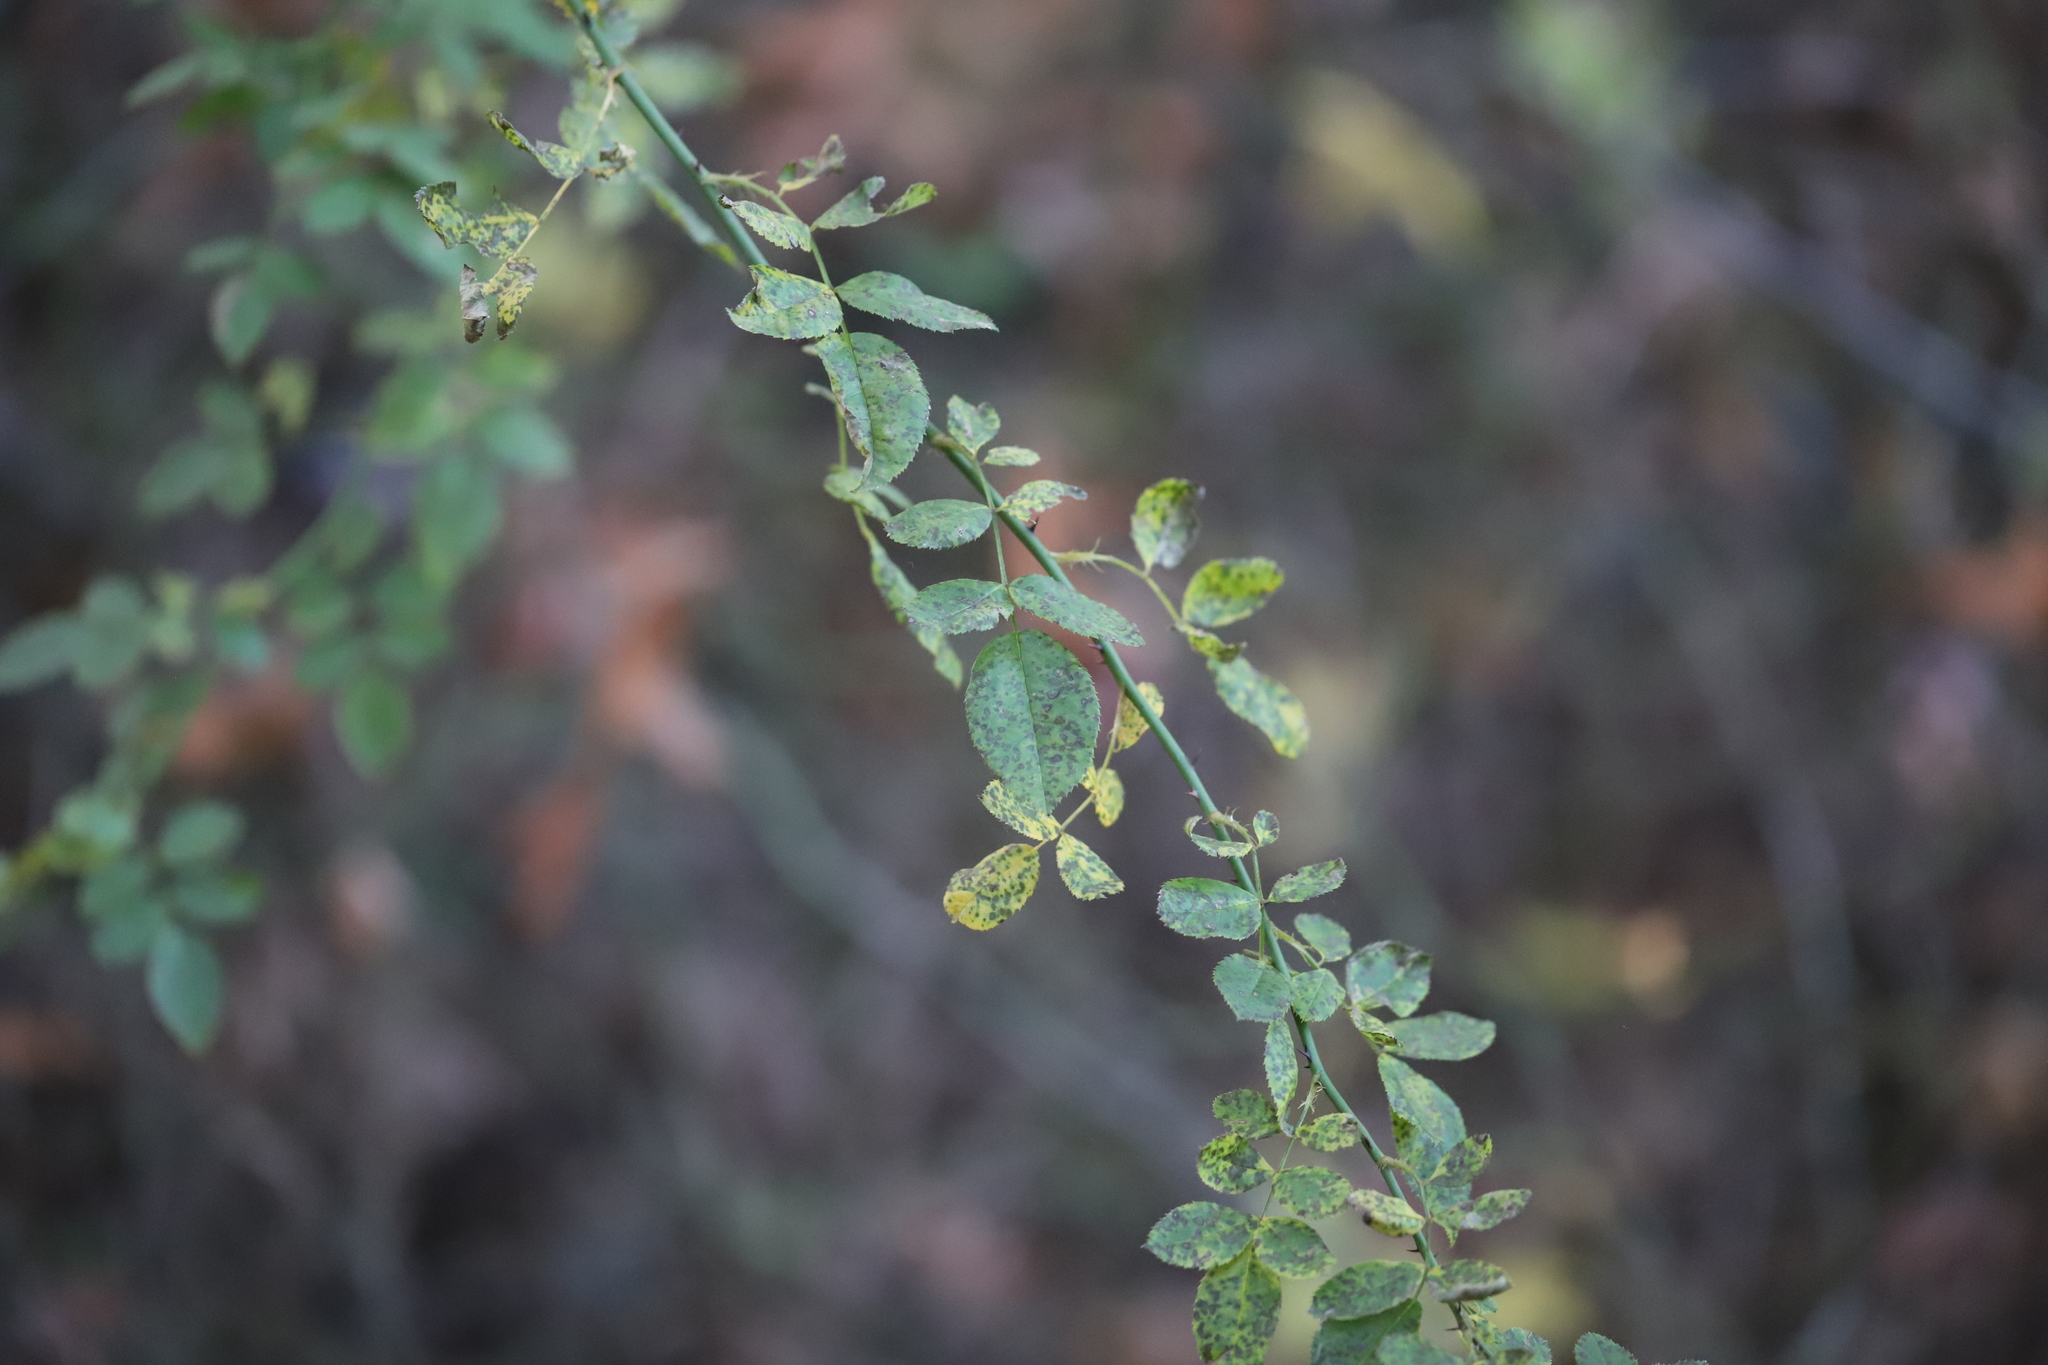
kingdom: Plantae
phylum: Tracheophyta
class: Magnoliopsida
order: Rosales
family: Rosaceae
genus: Rosa
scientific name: Rosa multiflora
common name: Multiflora rose
